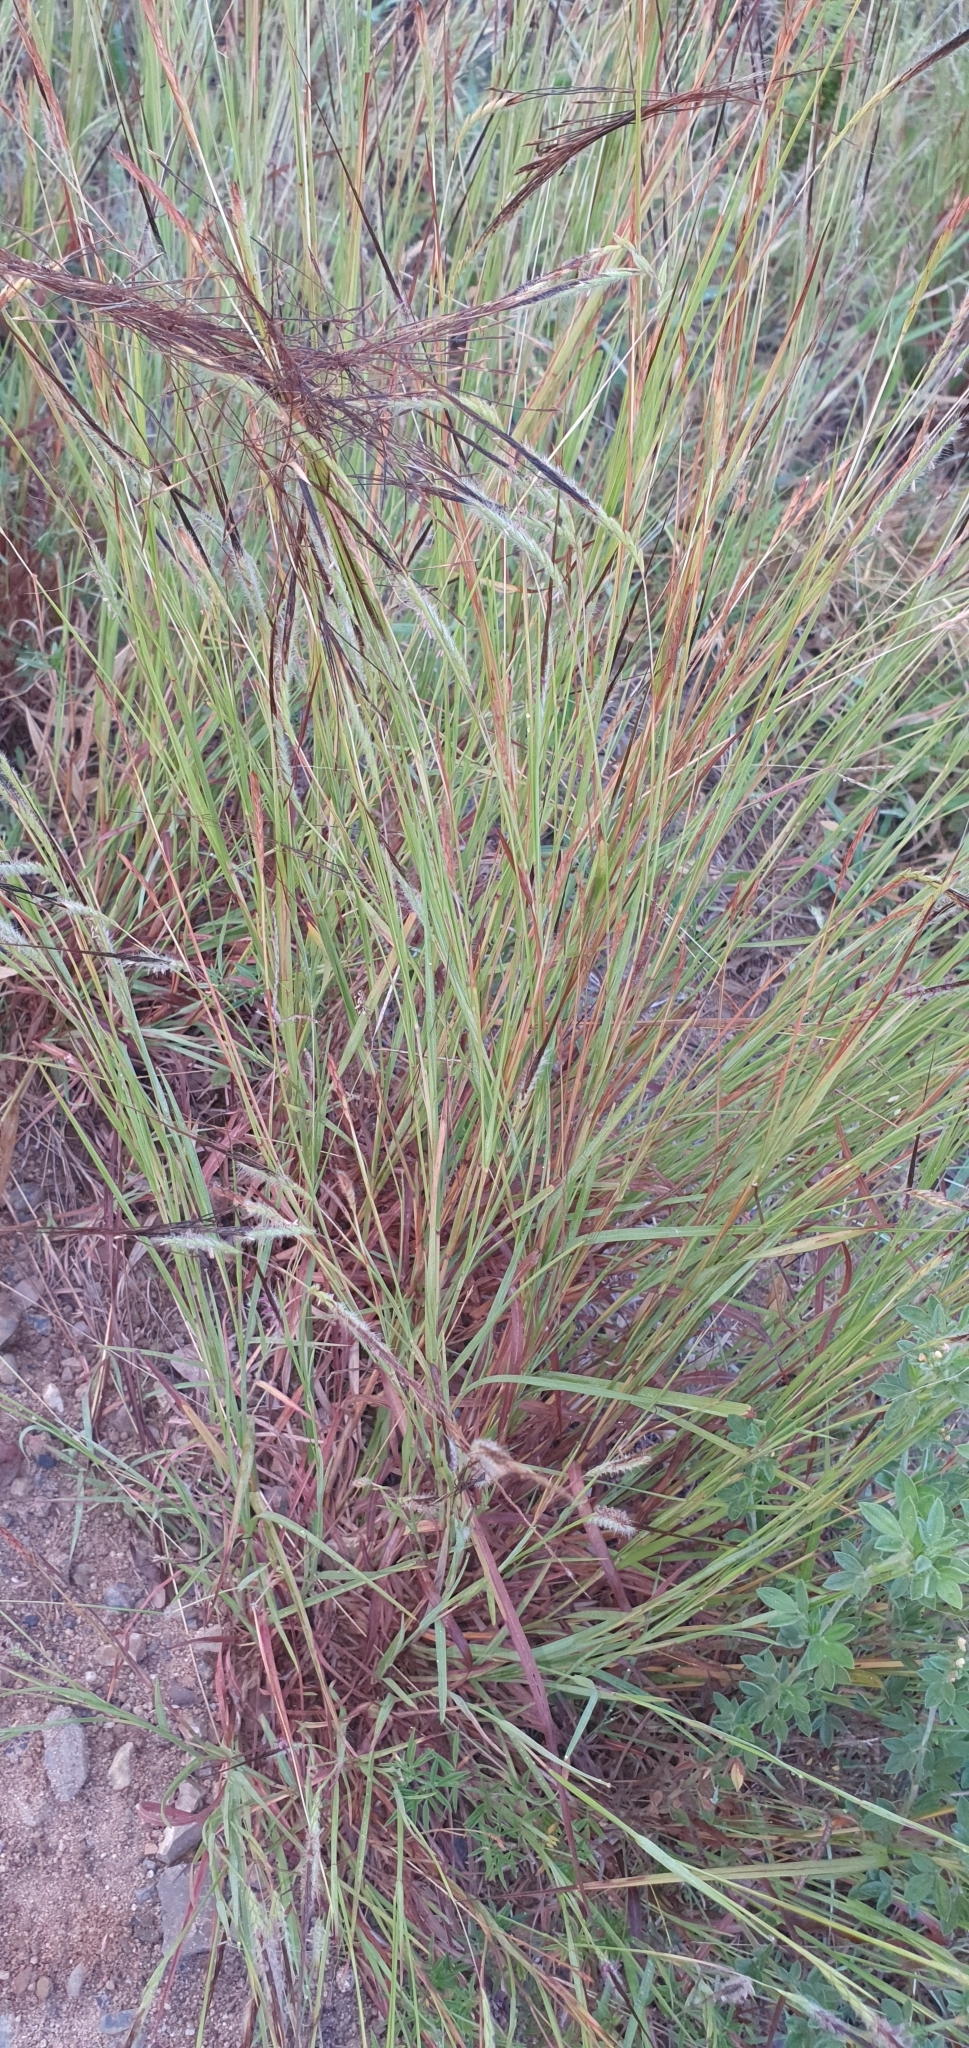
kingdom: Plantae
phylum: Tracheophyta
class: Liliopsida
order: Poales
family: Poaceae
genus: Heteropogon
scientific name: Heteropogon contortus
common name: Tanglehead
